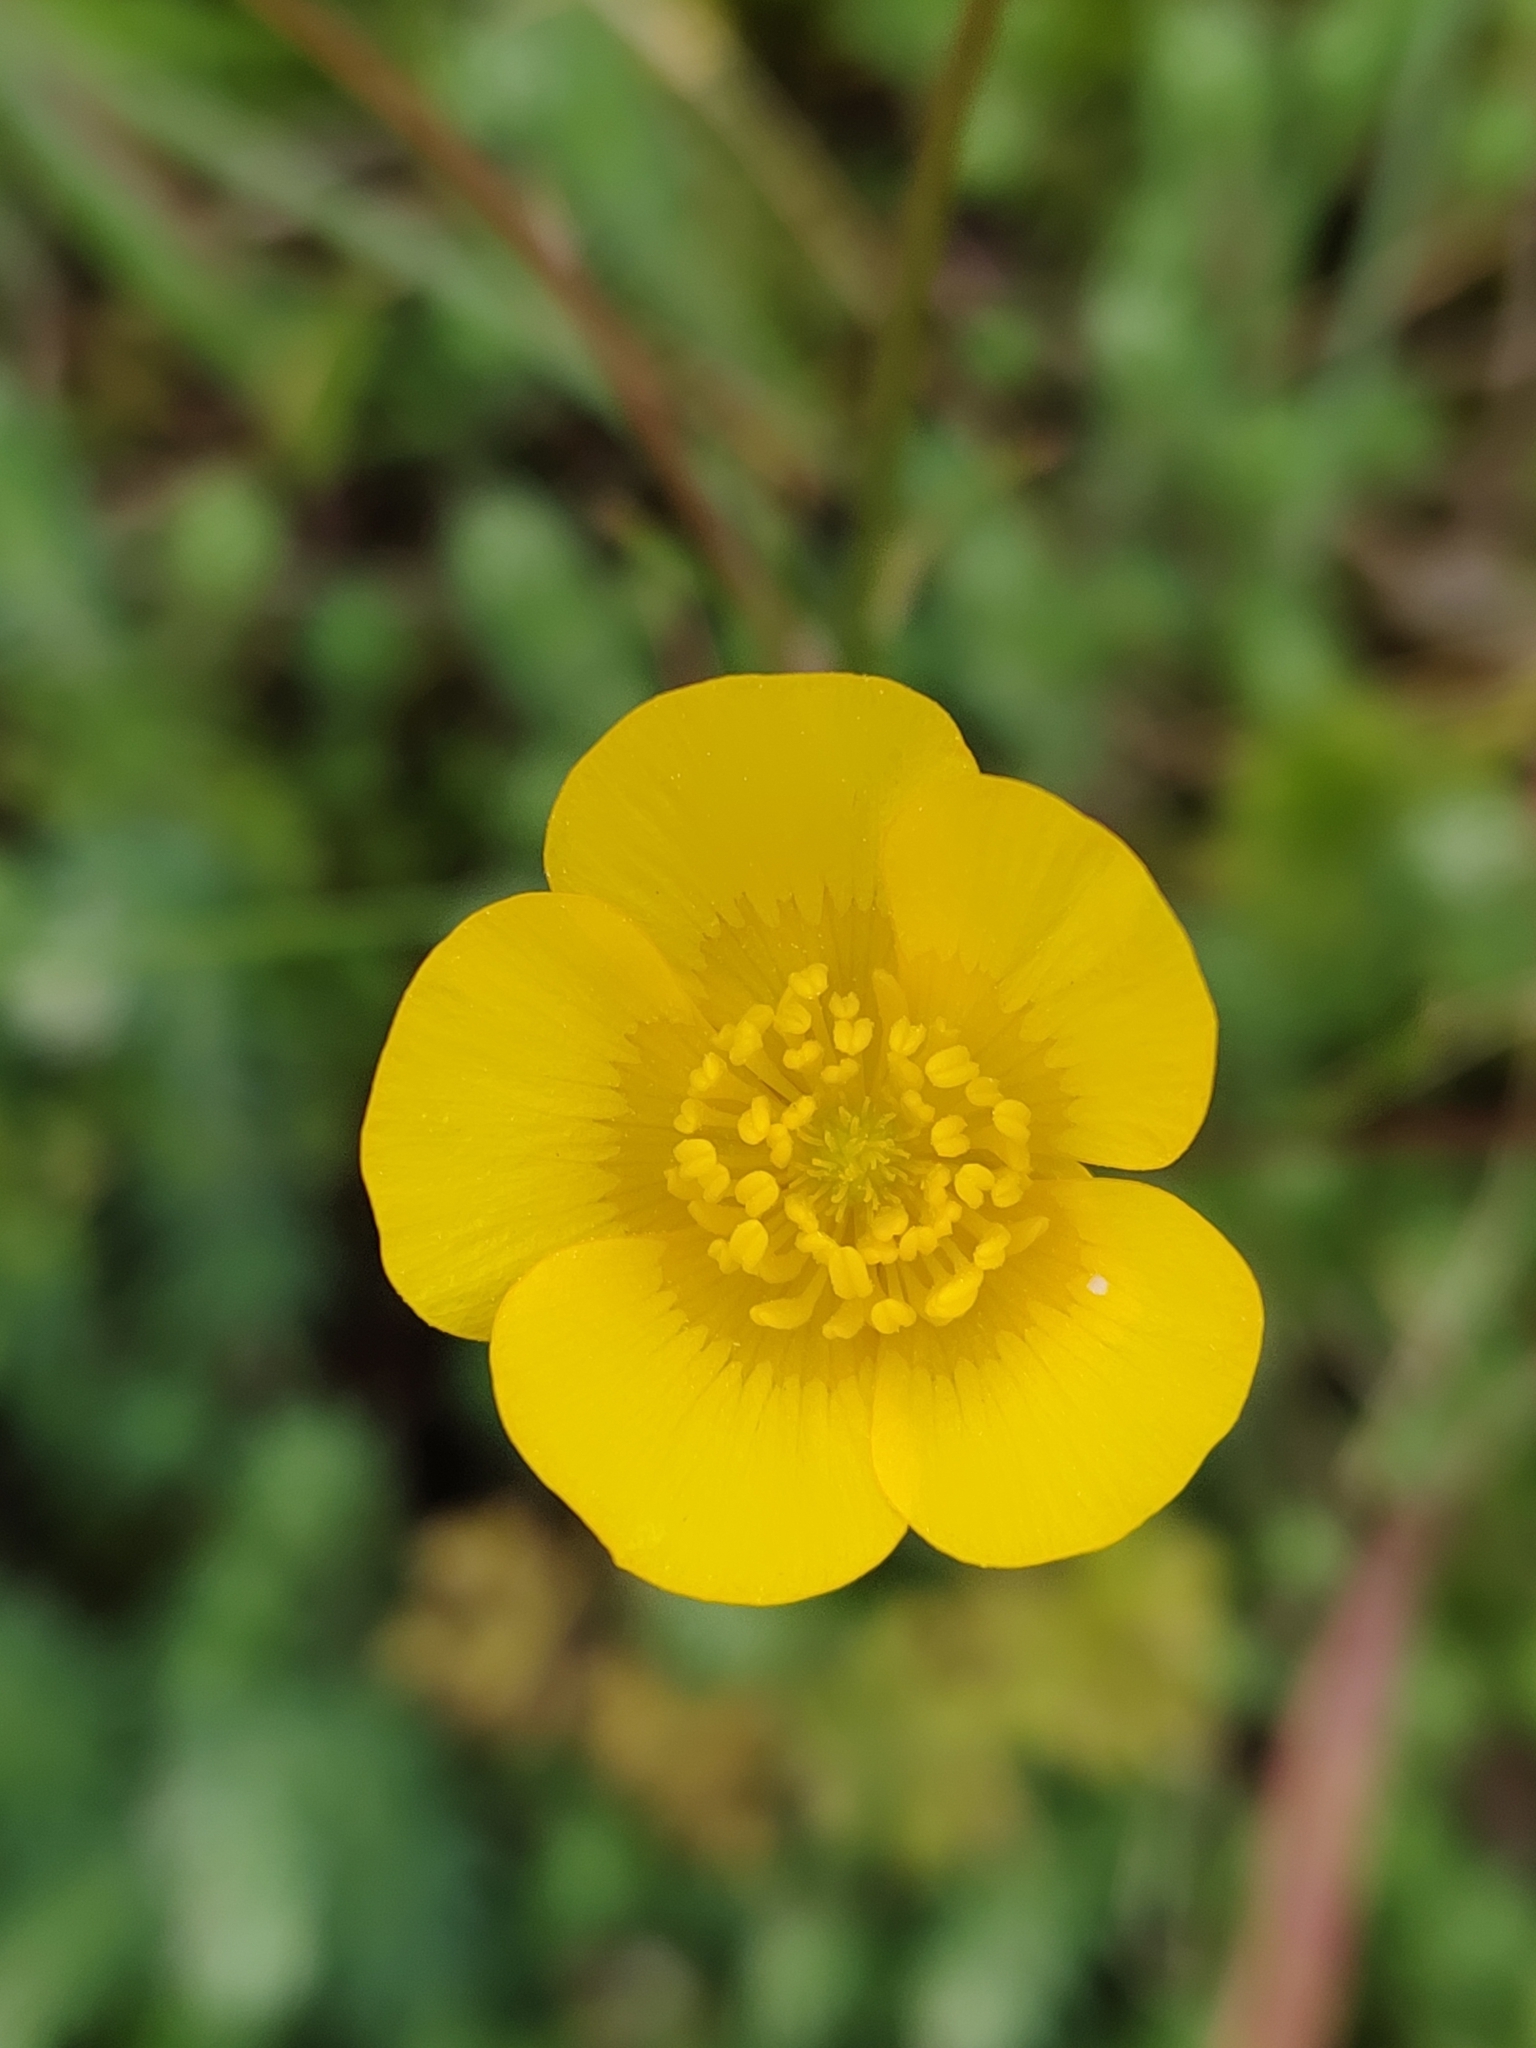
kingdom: Plantae
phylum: Tracheophyta
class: Magnoliopsida
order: Ranunculales
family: Ranunculaceae
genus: Ranunculus
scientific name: Ranunculus ollissiponensis
